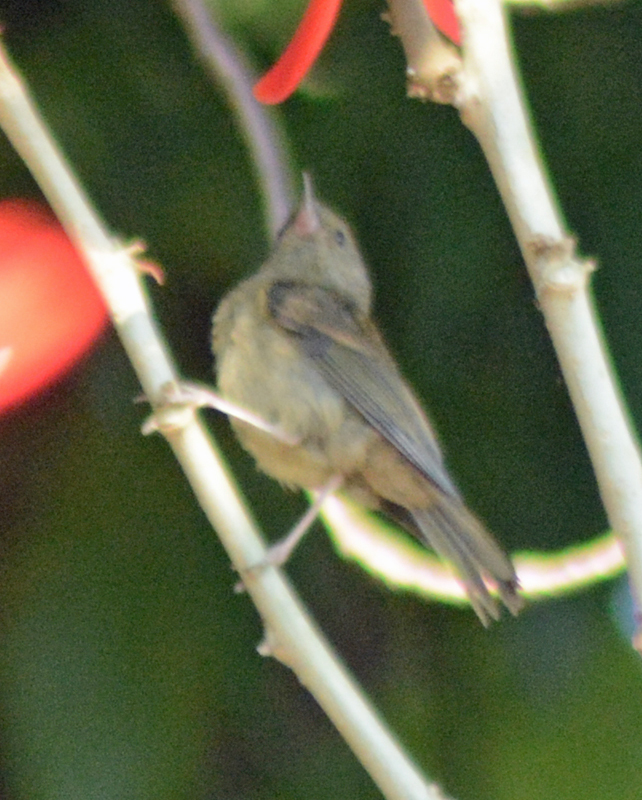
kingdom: Animalia
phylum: Chordata
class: Aves
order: Passeriformes
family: Thraupidae
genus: Diglossa
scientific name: Diglossa baritula
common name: Cinnamon-bellied flowerpiercer
